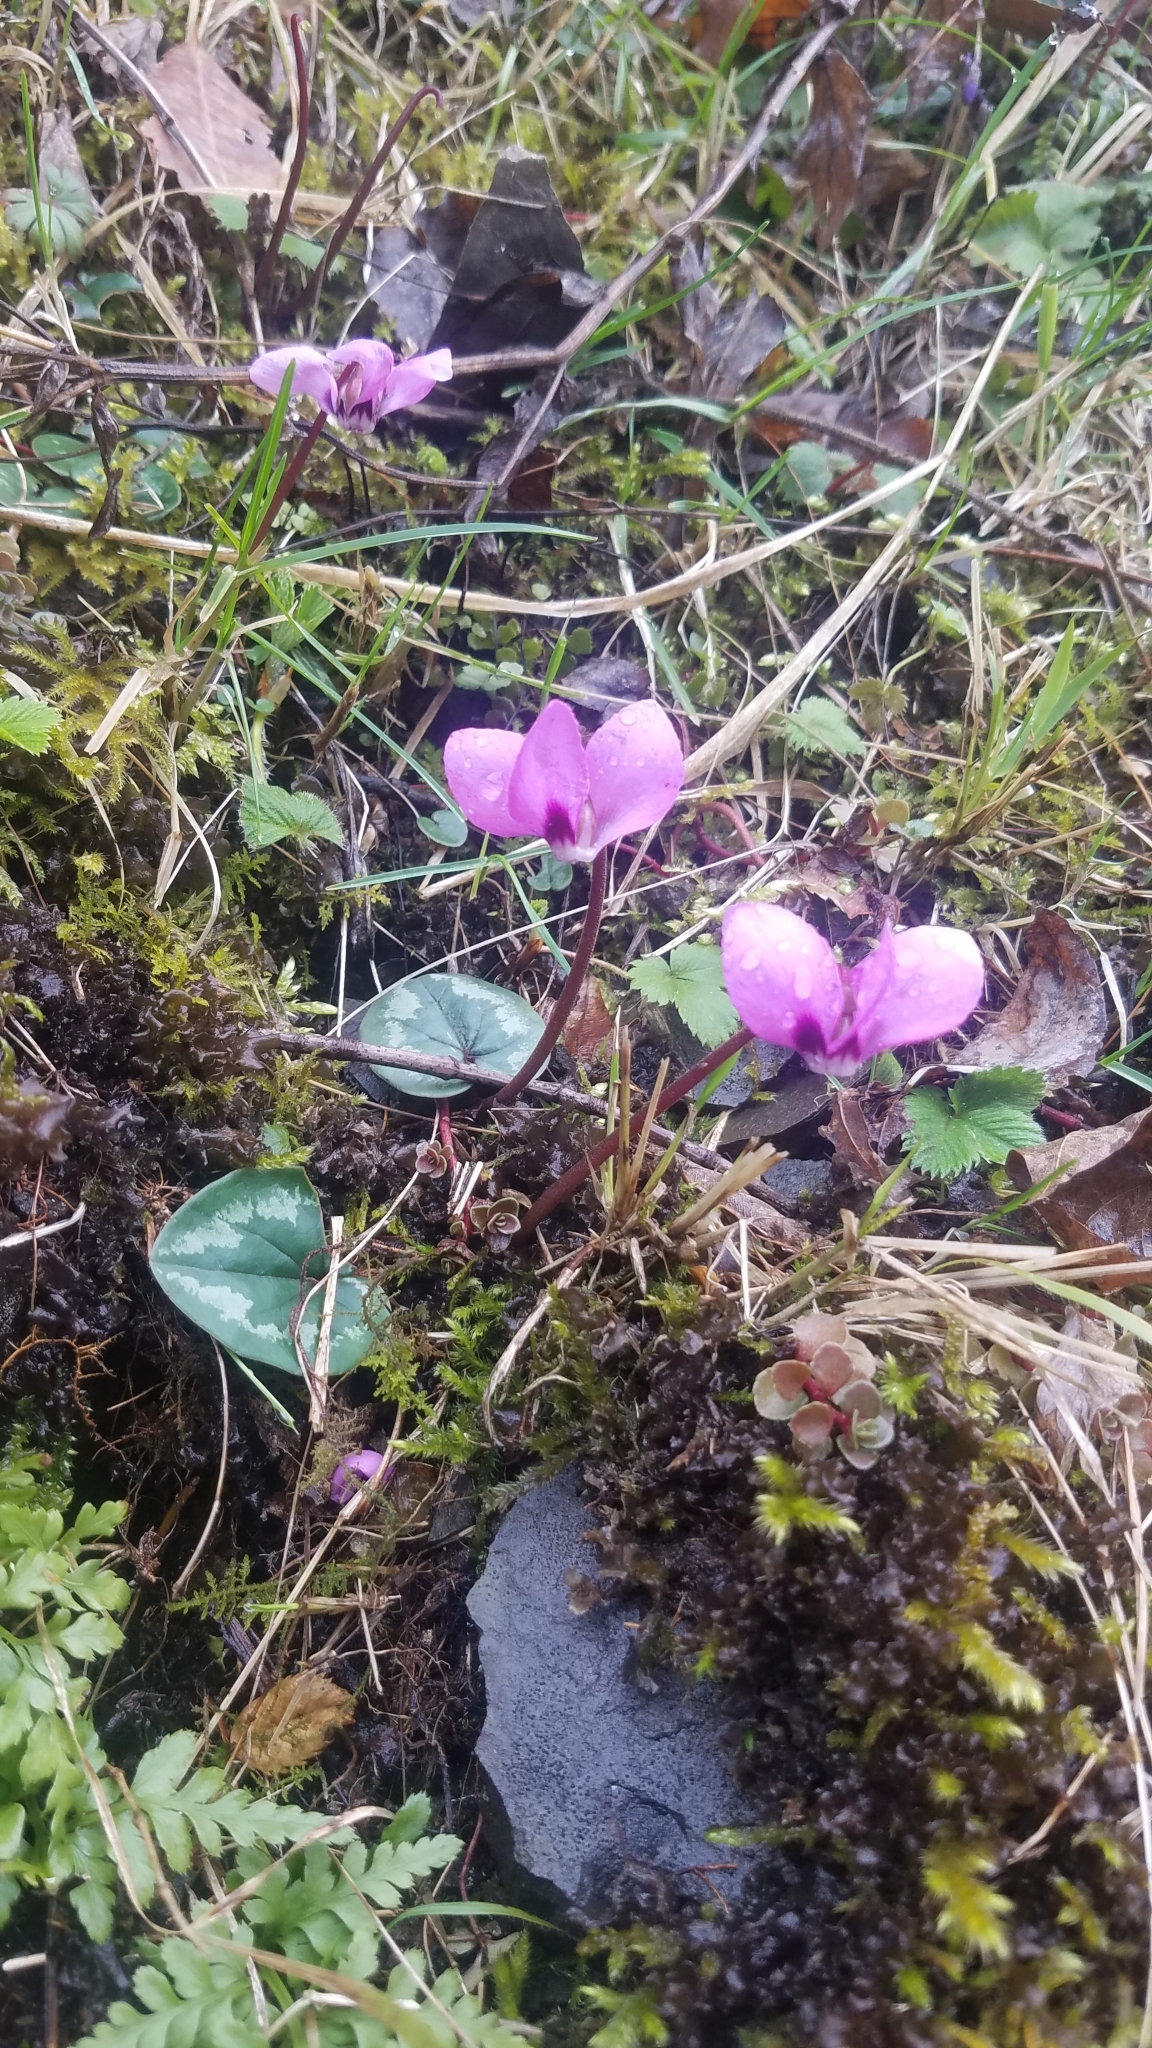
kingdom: Plantae
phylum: Tracheophyta
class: Magnoliopsida
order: Ericales
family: Primulaceae
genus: Cyclamen
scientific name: Cyclamen coum
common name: Eastern sowbread
